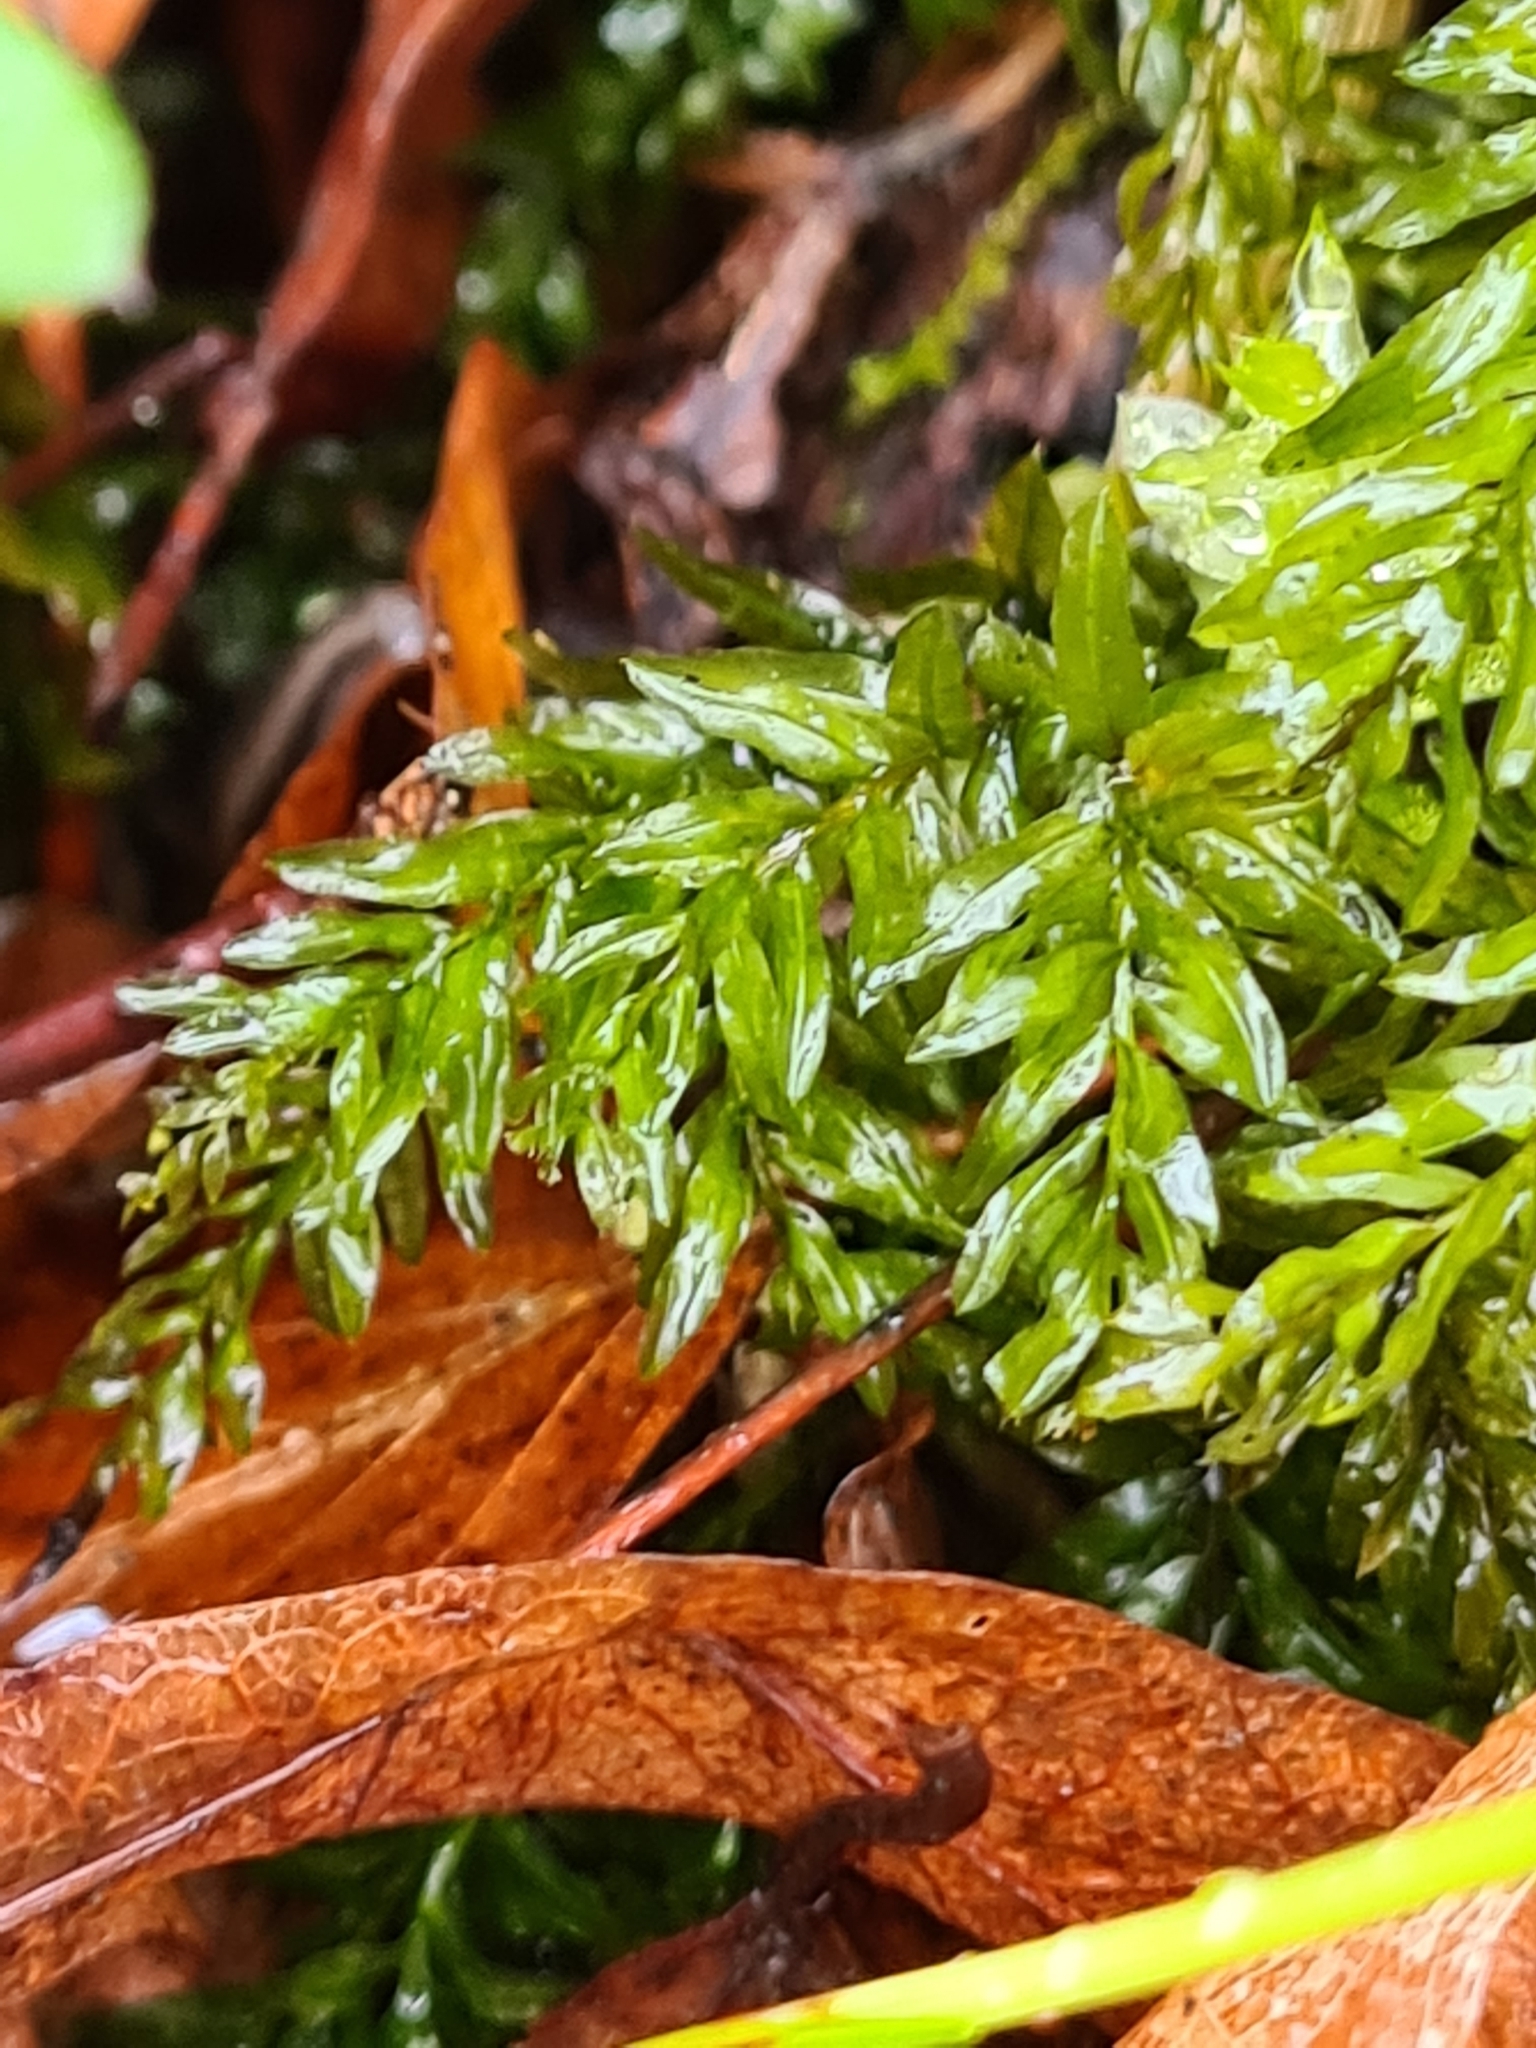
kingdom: Plantae
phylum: Bryophyta
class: Bryopsida
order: Bryales
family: Mniaceae
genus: Plagiomnium
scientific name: Plagiomnium undulatum
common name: Hart's-tongue thyme-moss
